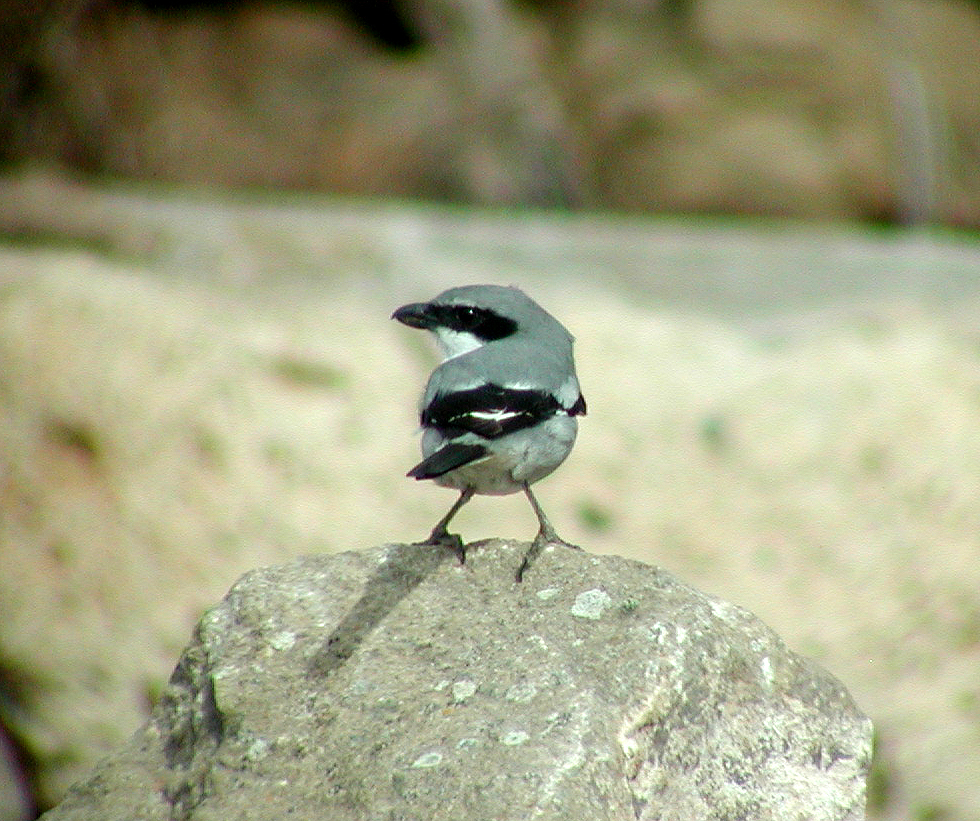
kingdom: Animalia
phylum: Chordata
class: Aves
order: Passeriformes
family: Laniidae
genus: Lanius
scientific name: Lanius excubitor
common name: Great grey shrike
